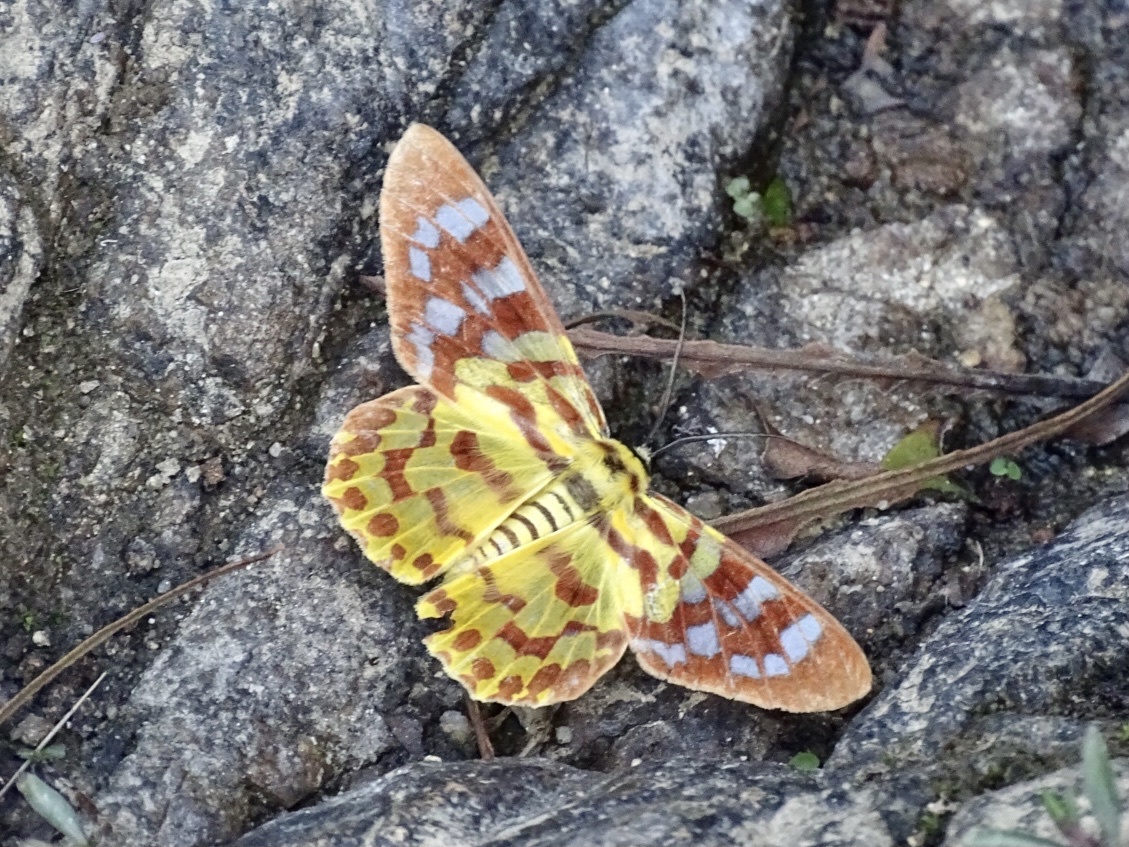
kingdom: Animalia
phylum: Arthropoda
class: Insecta
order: Lepidoptera
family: Geometridae
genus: Dysphania
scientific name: Dysphania militaris
